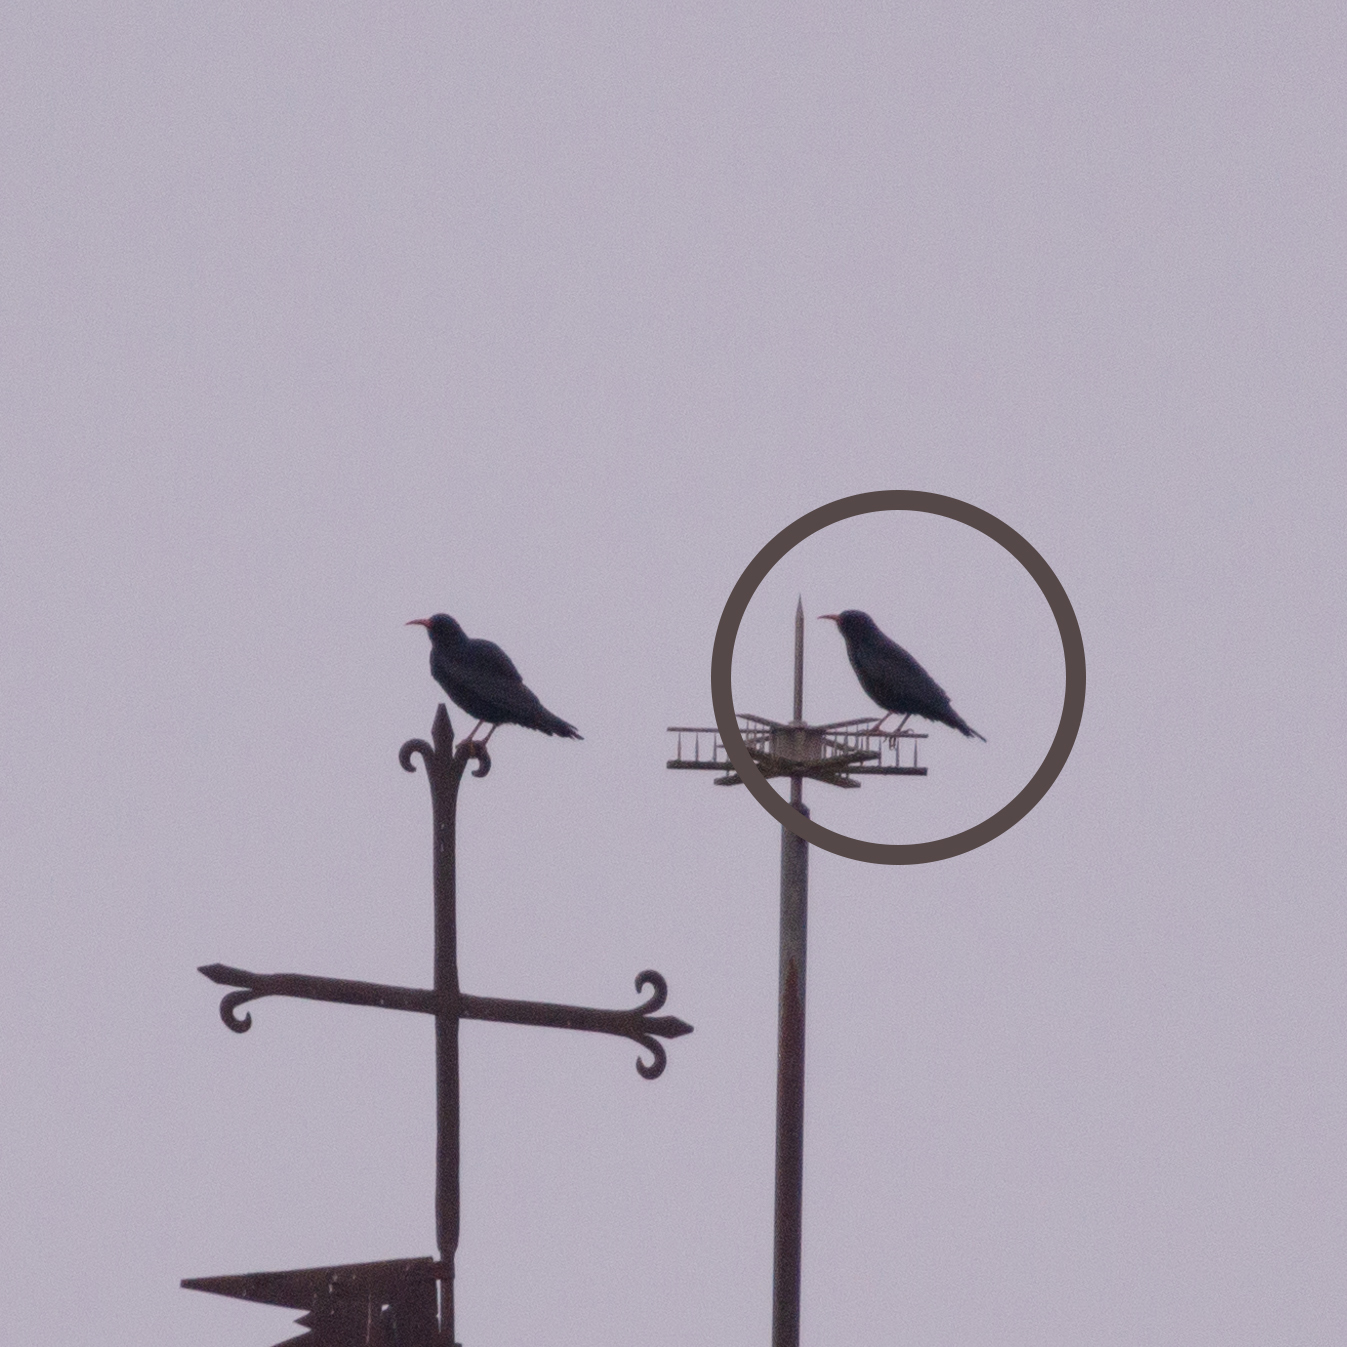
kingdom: Animalia
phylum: Chordata
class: Aves
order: Passeriformes
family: Corvidae
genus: Pyrrhocorax
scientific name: Pyrrhocorax pyrrhocorax
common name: Red-billed chough
